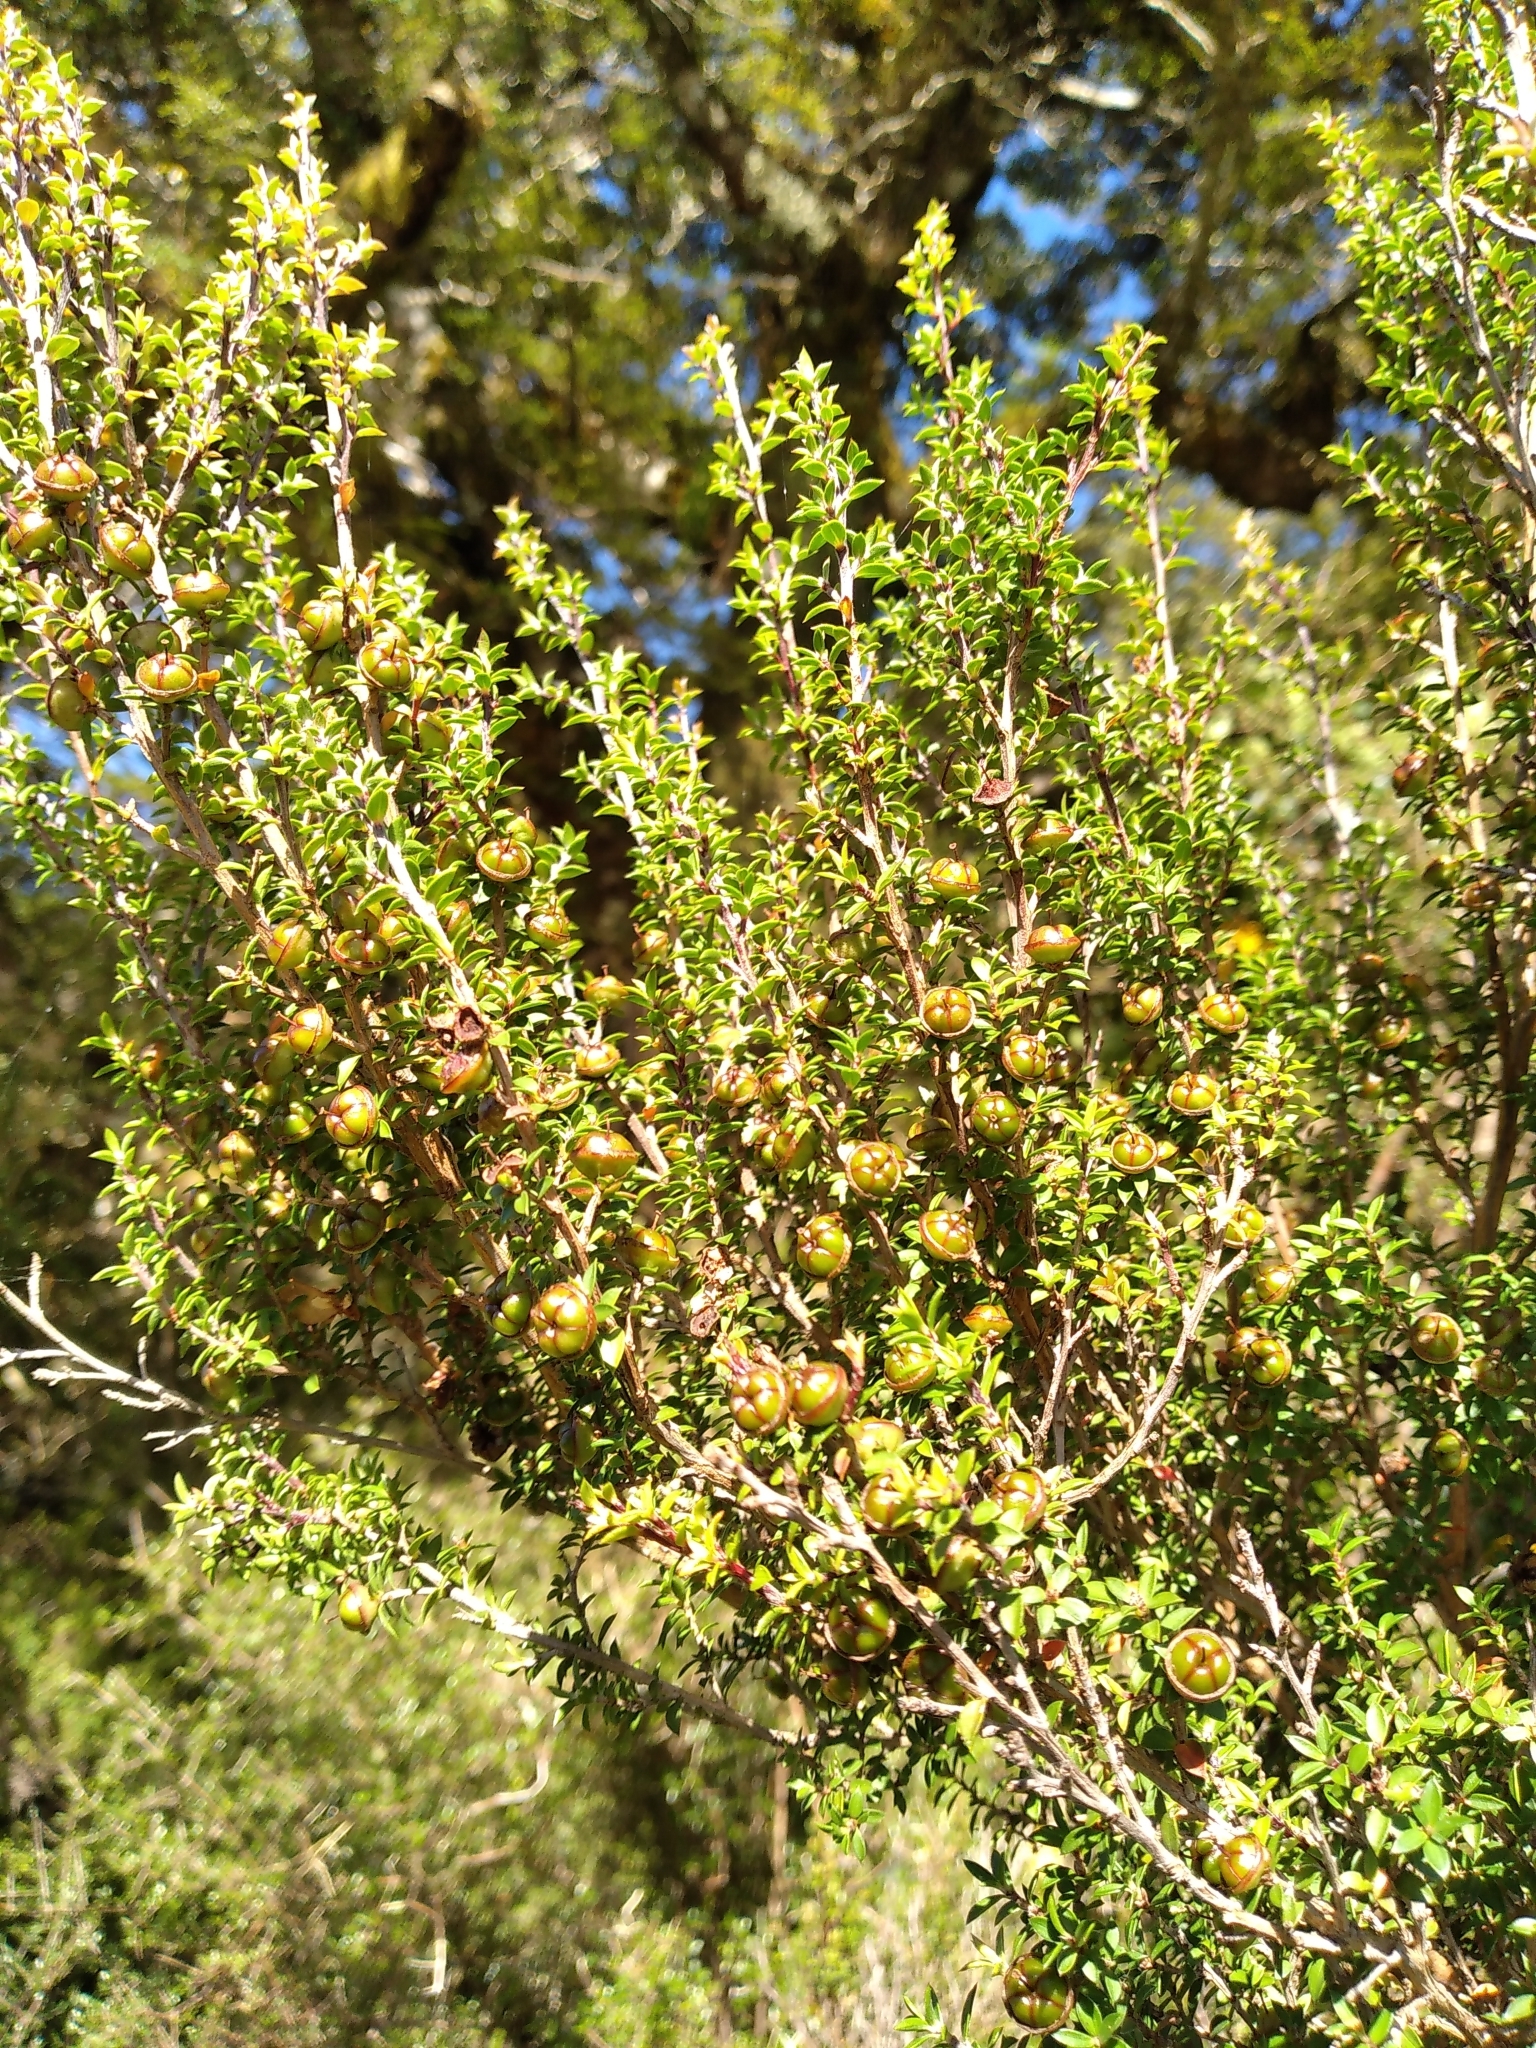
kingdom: Plantae
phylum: Tracheophyta
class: Magnoliopsida
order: Myrtales
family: Myrtaceae
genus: Leptospermum
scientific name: Leptospermum scoparium
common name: Broom tea-tree
